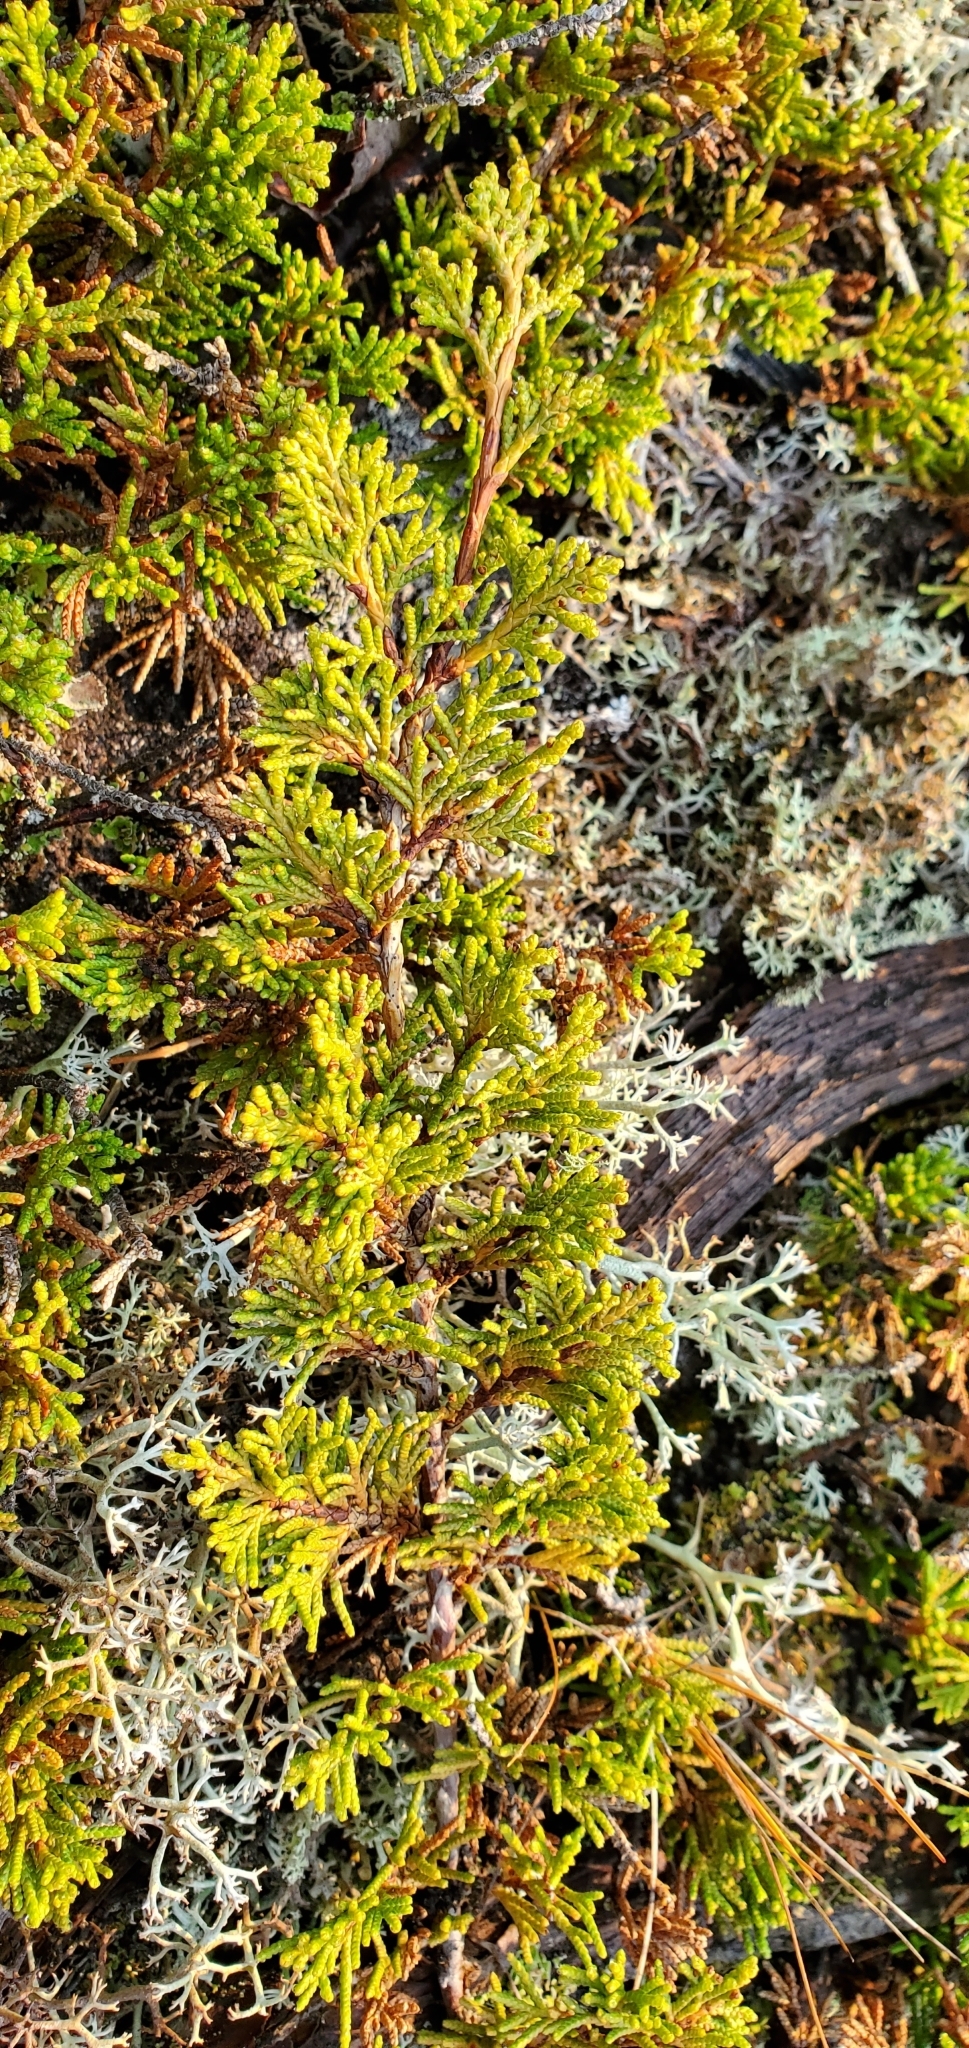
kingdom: Plantae
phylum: Tracheophyta
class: Pinopsida
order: Pinales
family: Cupressaceae
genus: Juniperus
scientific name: Juniperus horizontalis
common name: Creeping juniper
